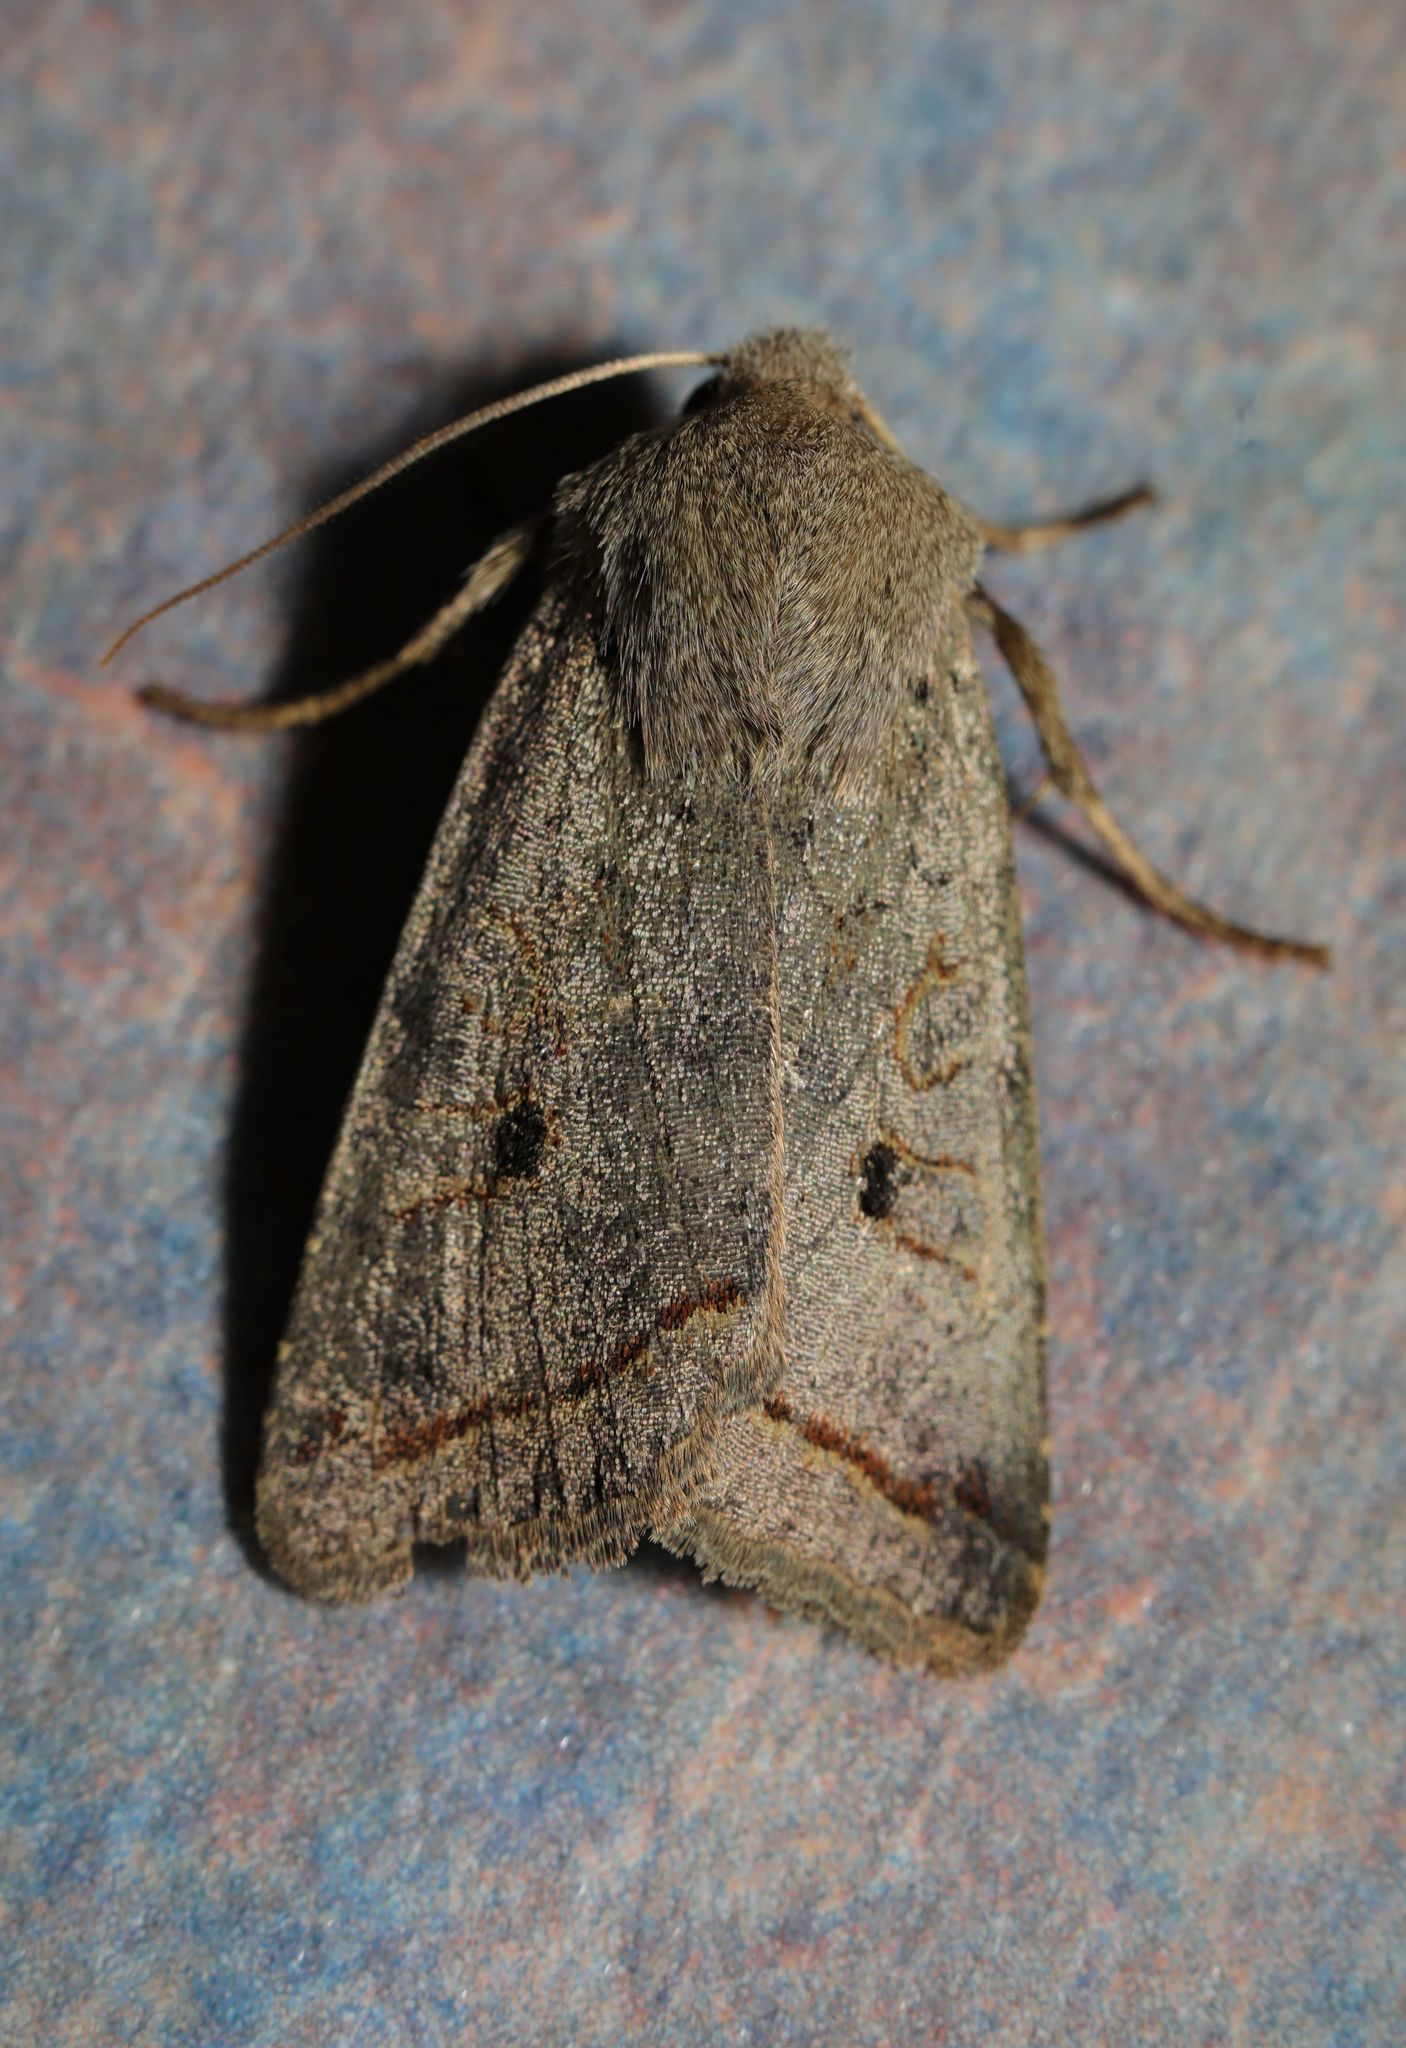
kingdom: Animalia
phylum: Arthropoda
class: Insecta
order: Lepidoptera
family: Noctuidae
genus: Agrochola
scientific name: Agrochola lota
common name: Red-line quaker
